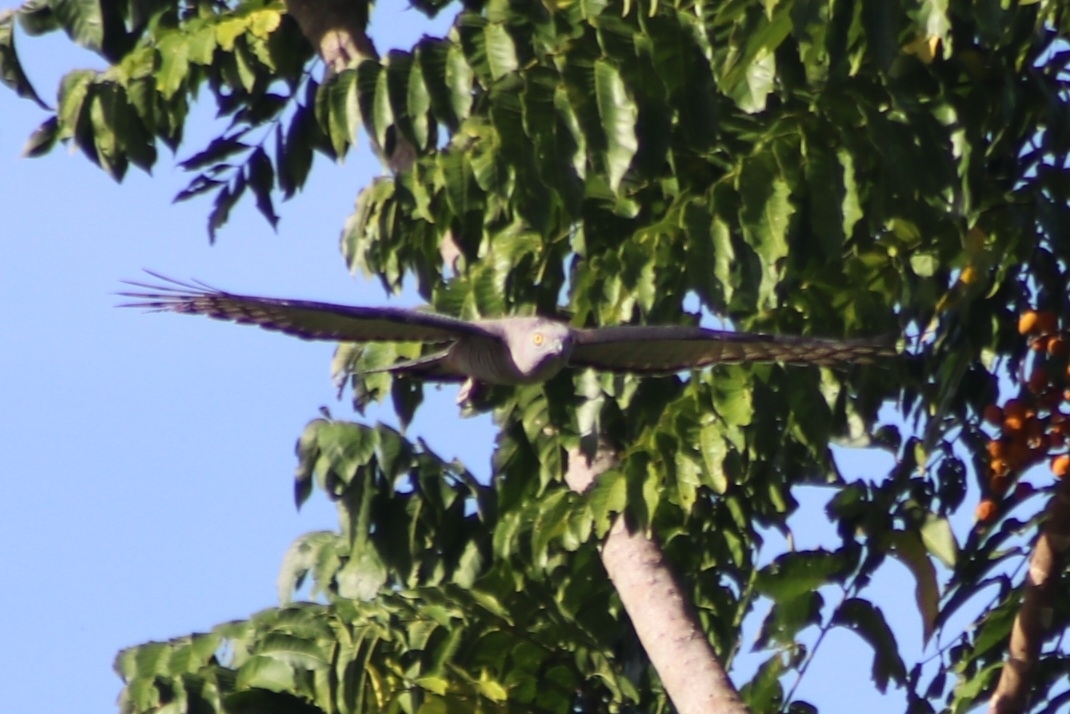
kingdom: Animalia
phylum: Chordata
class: Aves
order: Accipitriformes
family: Accipitridae
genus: Aviceda
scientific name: Aviceda subcristata
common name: Pacific baza
